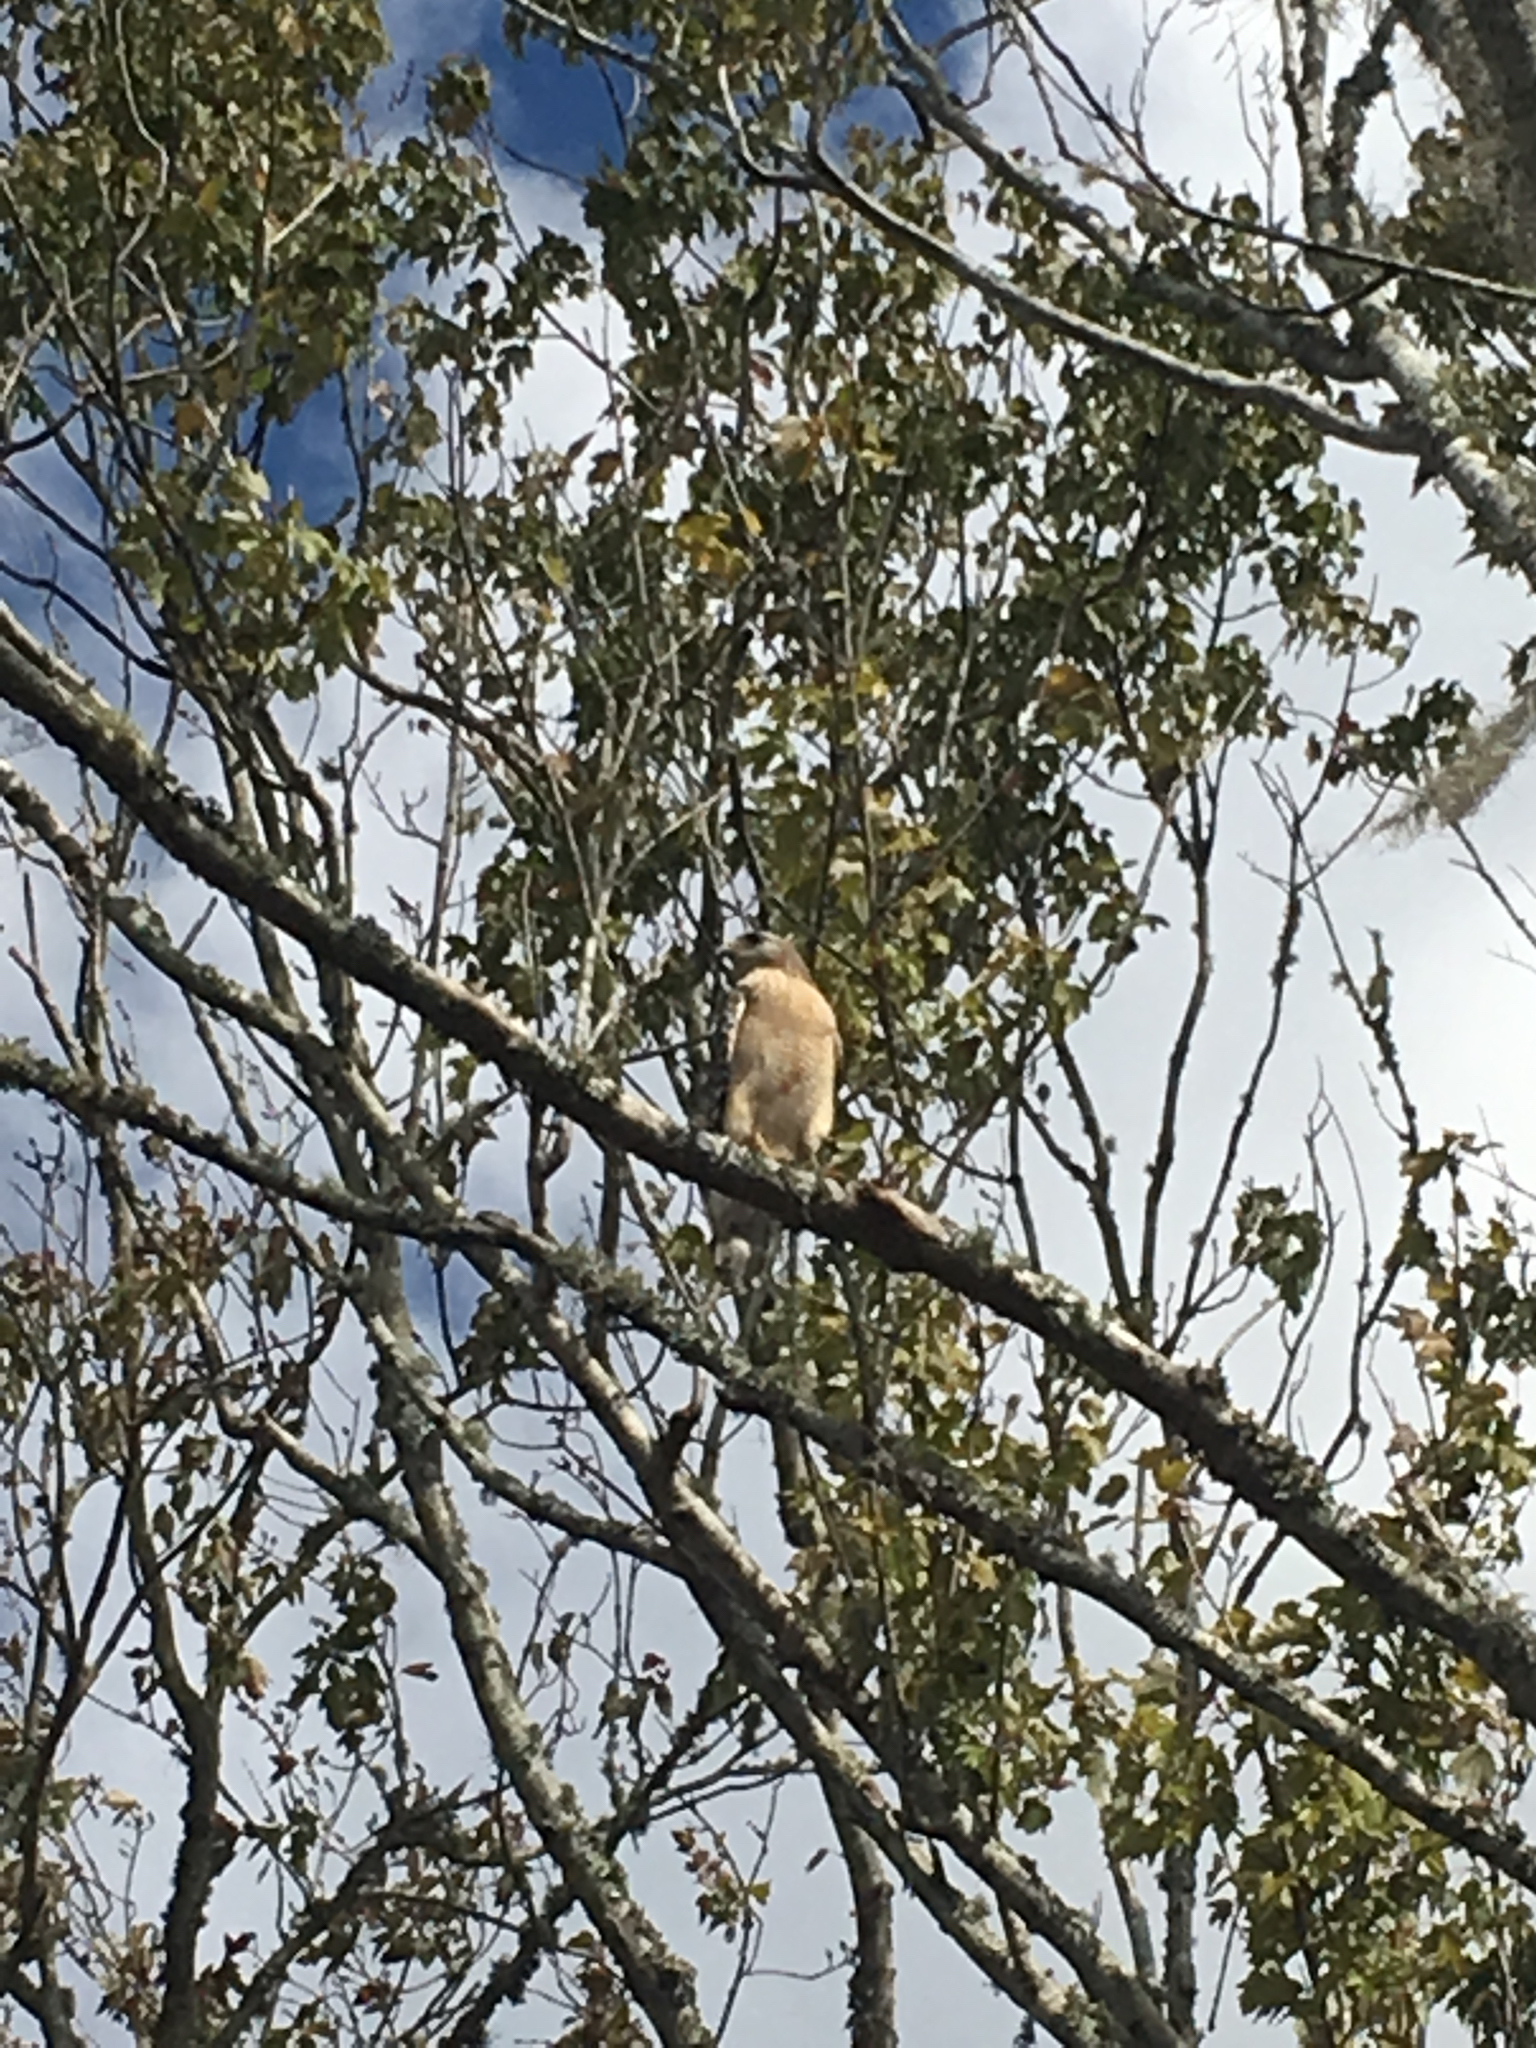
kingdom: Animalia
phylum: Chordata
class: Aves
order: Accipitriformes
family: Accipitridae
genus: Buteo
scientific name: Buteo lineatus
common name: Red-shouldered hawk
